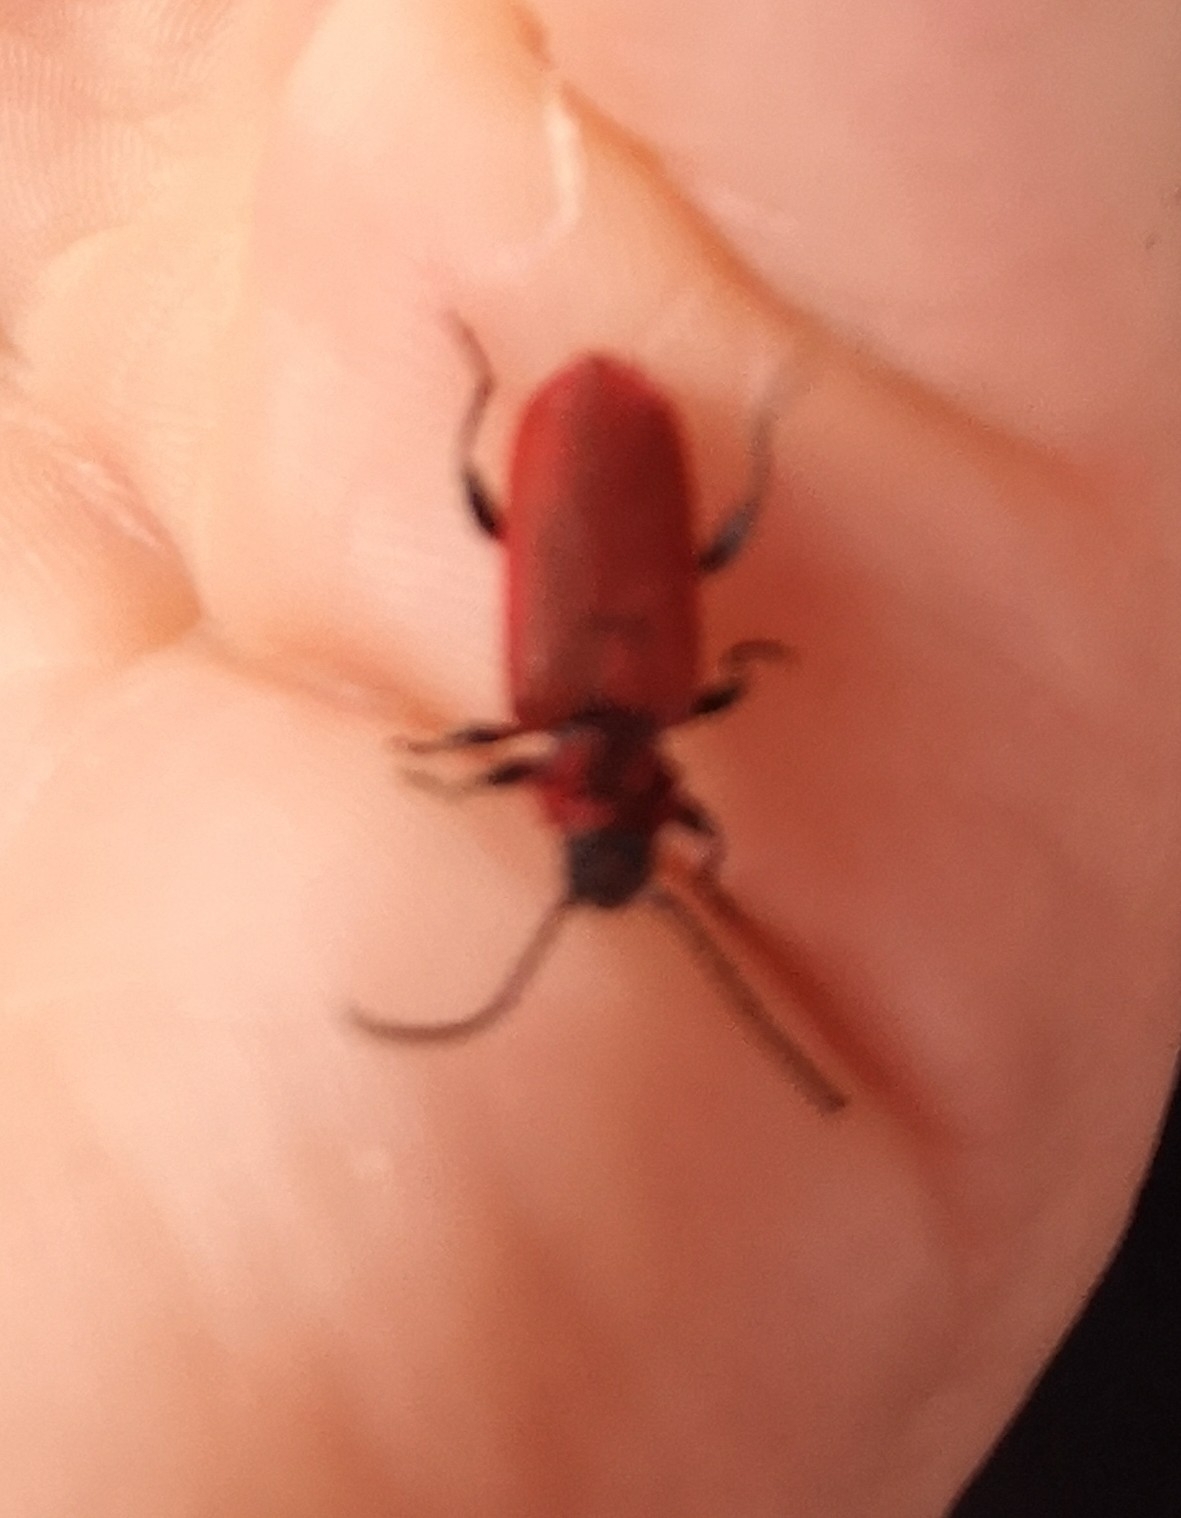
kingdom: Animalia
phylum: Arthropoda
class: Insecta
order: Coleoptera
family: Cerambycidae
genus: Pyrrhidium
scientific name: Pyrrhidium sanguineum
